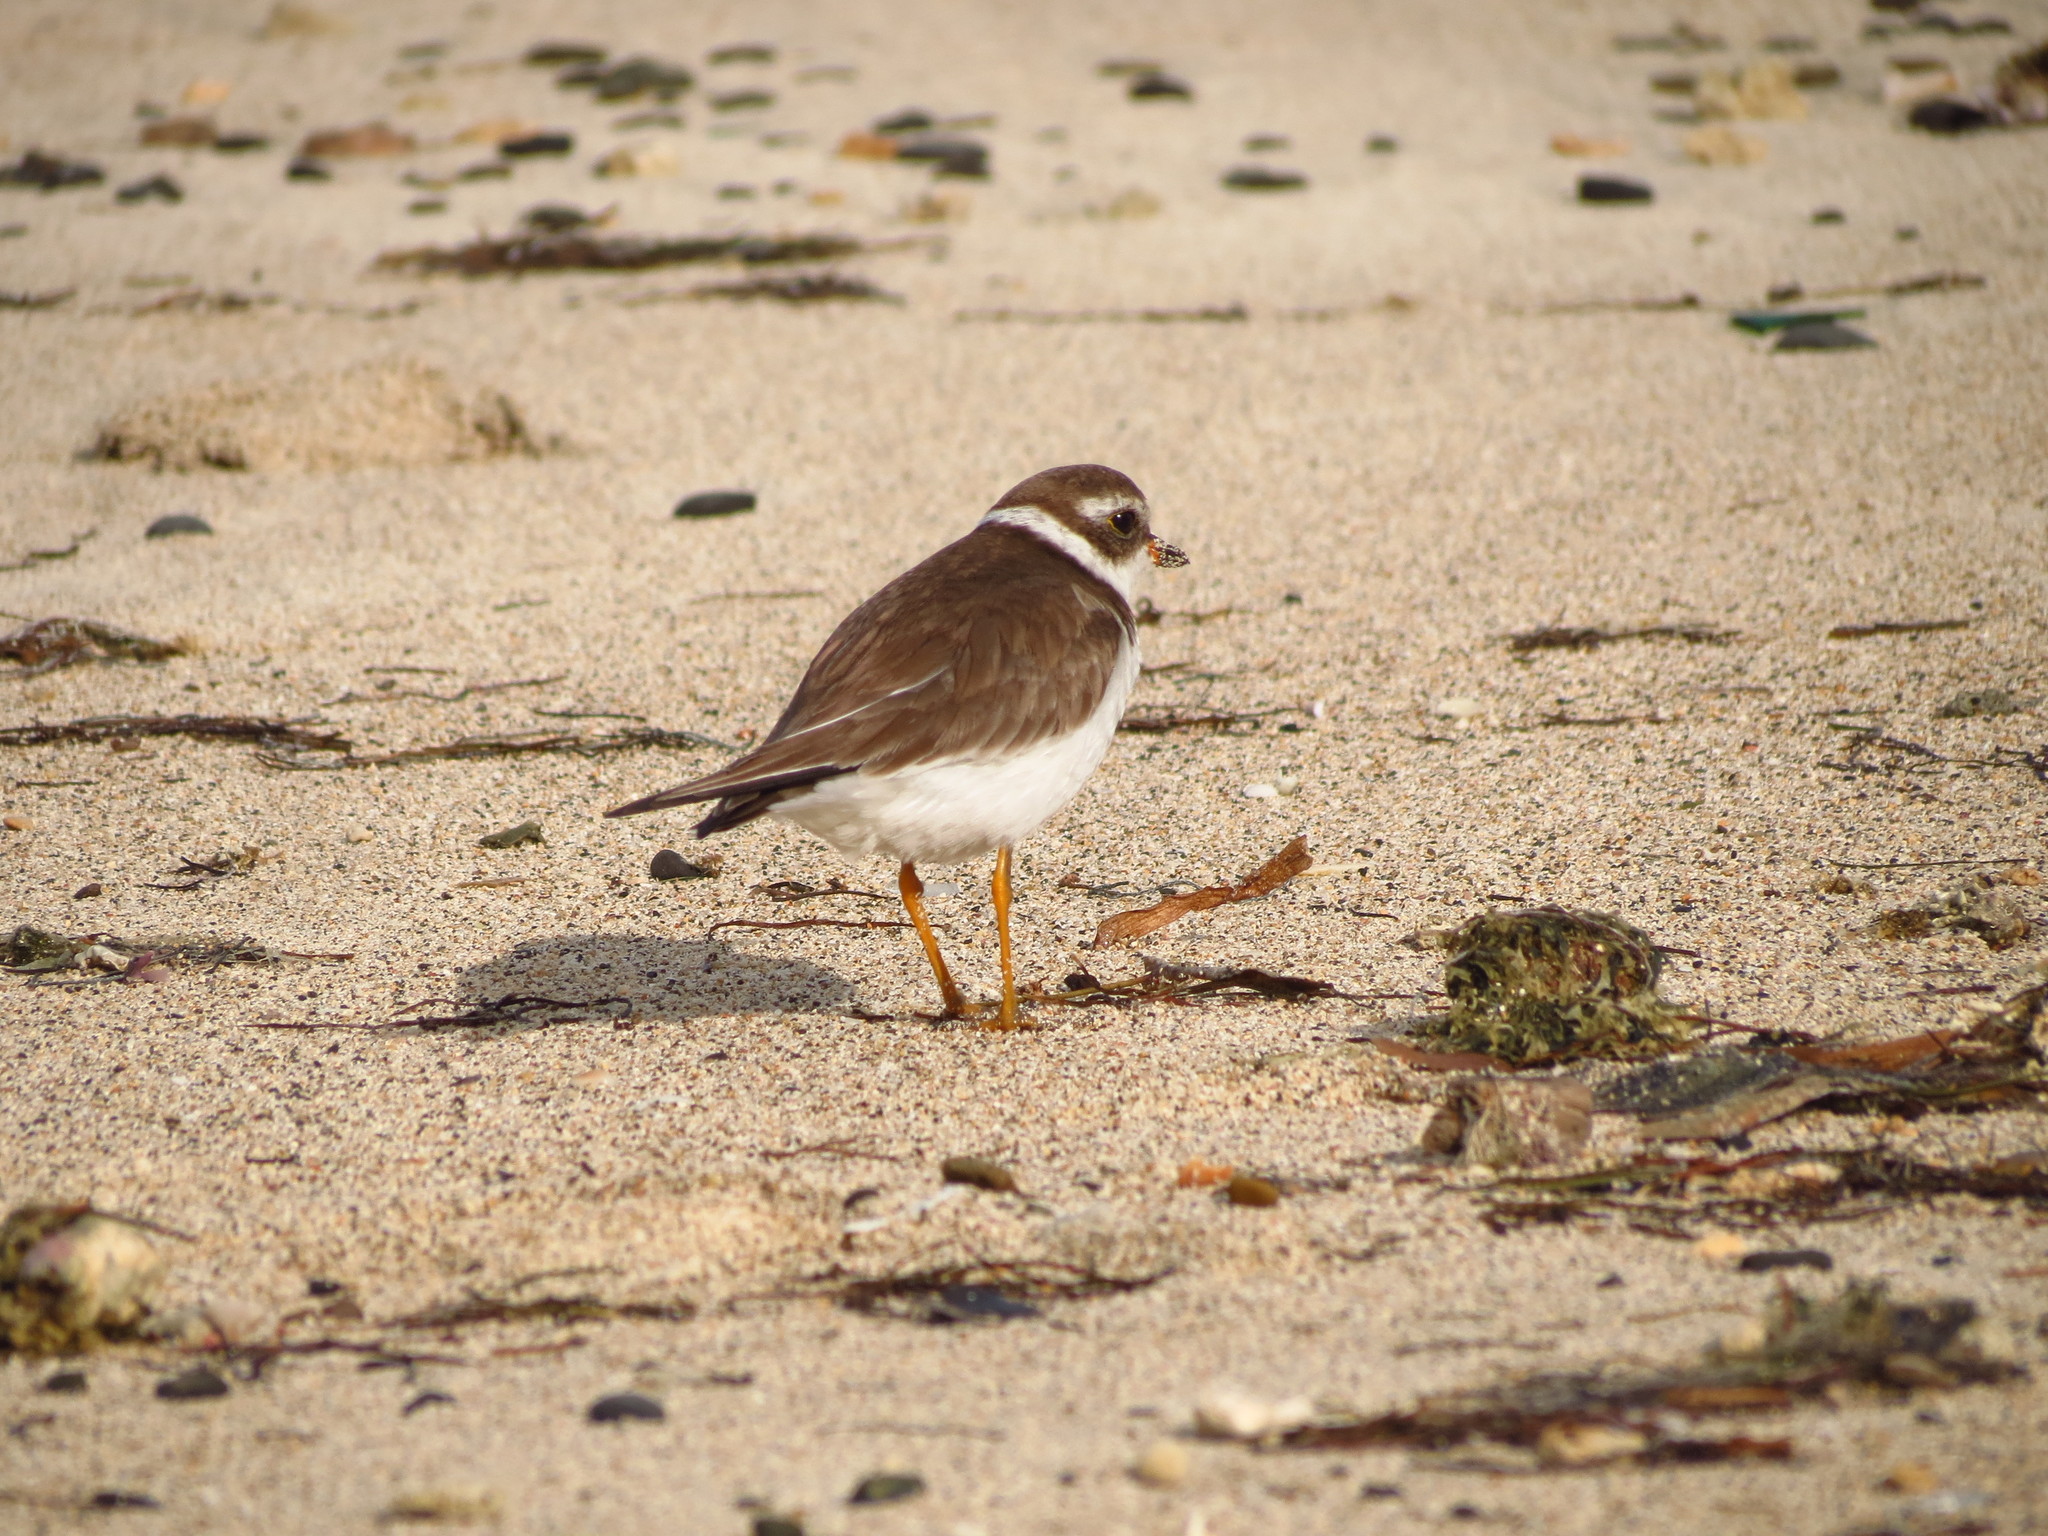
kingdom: Animalia
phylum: Chordata
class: Aves
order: Charadriiformes
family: Charadriidae
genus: Charadrius
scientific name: Charadrius semipalmatus
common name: Semipalmated plover
